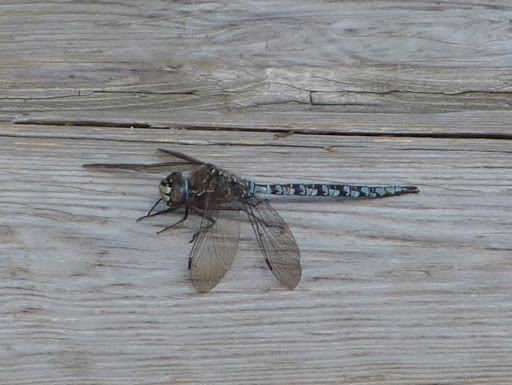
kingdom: Animalia
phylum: Arthropoda
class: Insecta
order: Odonata
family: Aeshnidae
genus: Aeshna
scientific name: Aeshna sitchensis
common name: Zigzag darner
